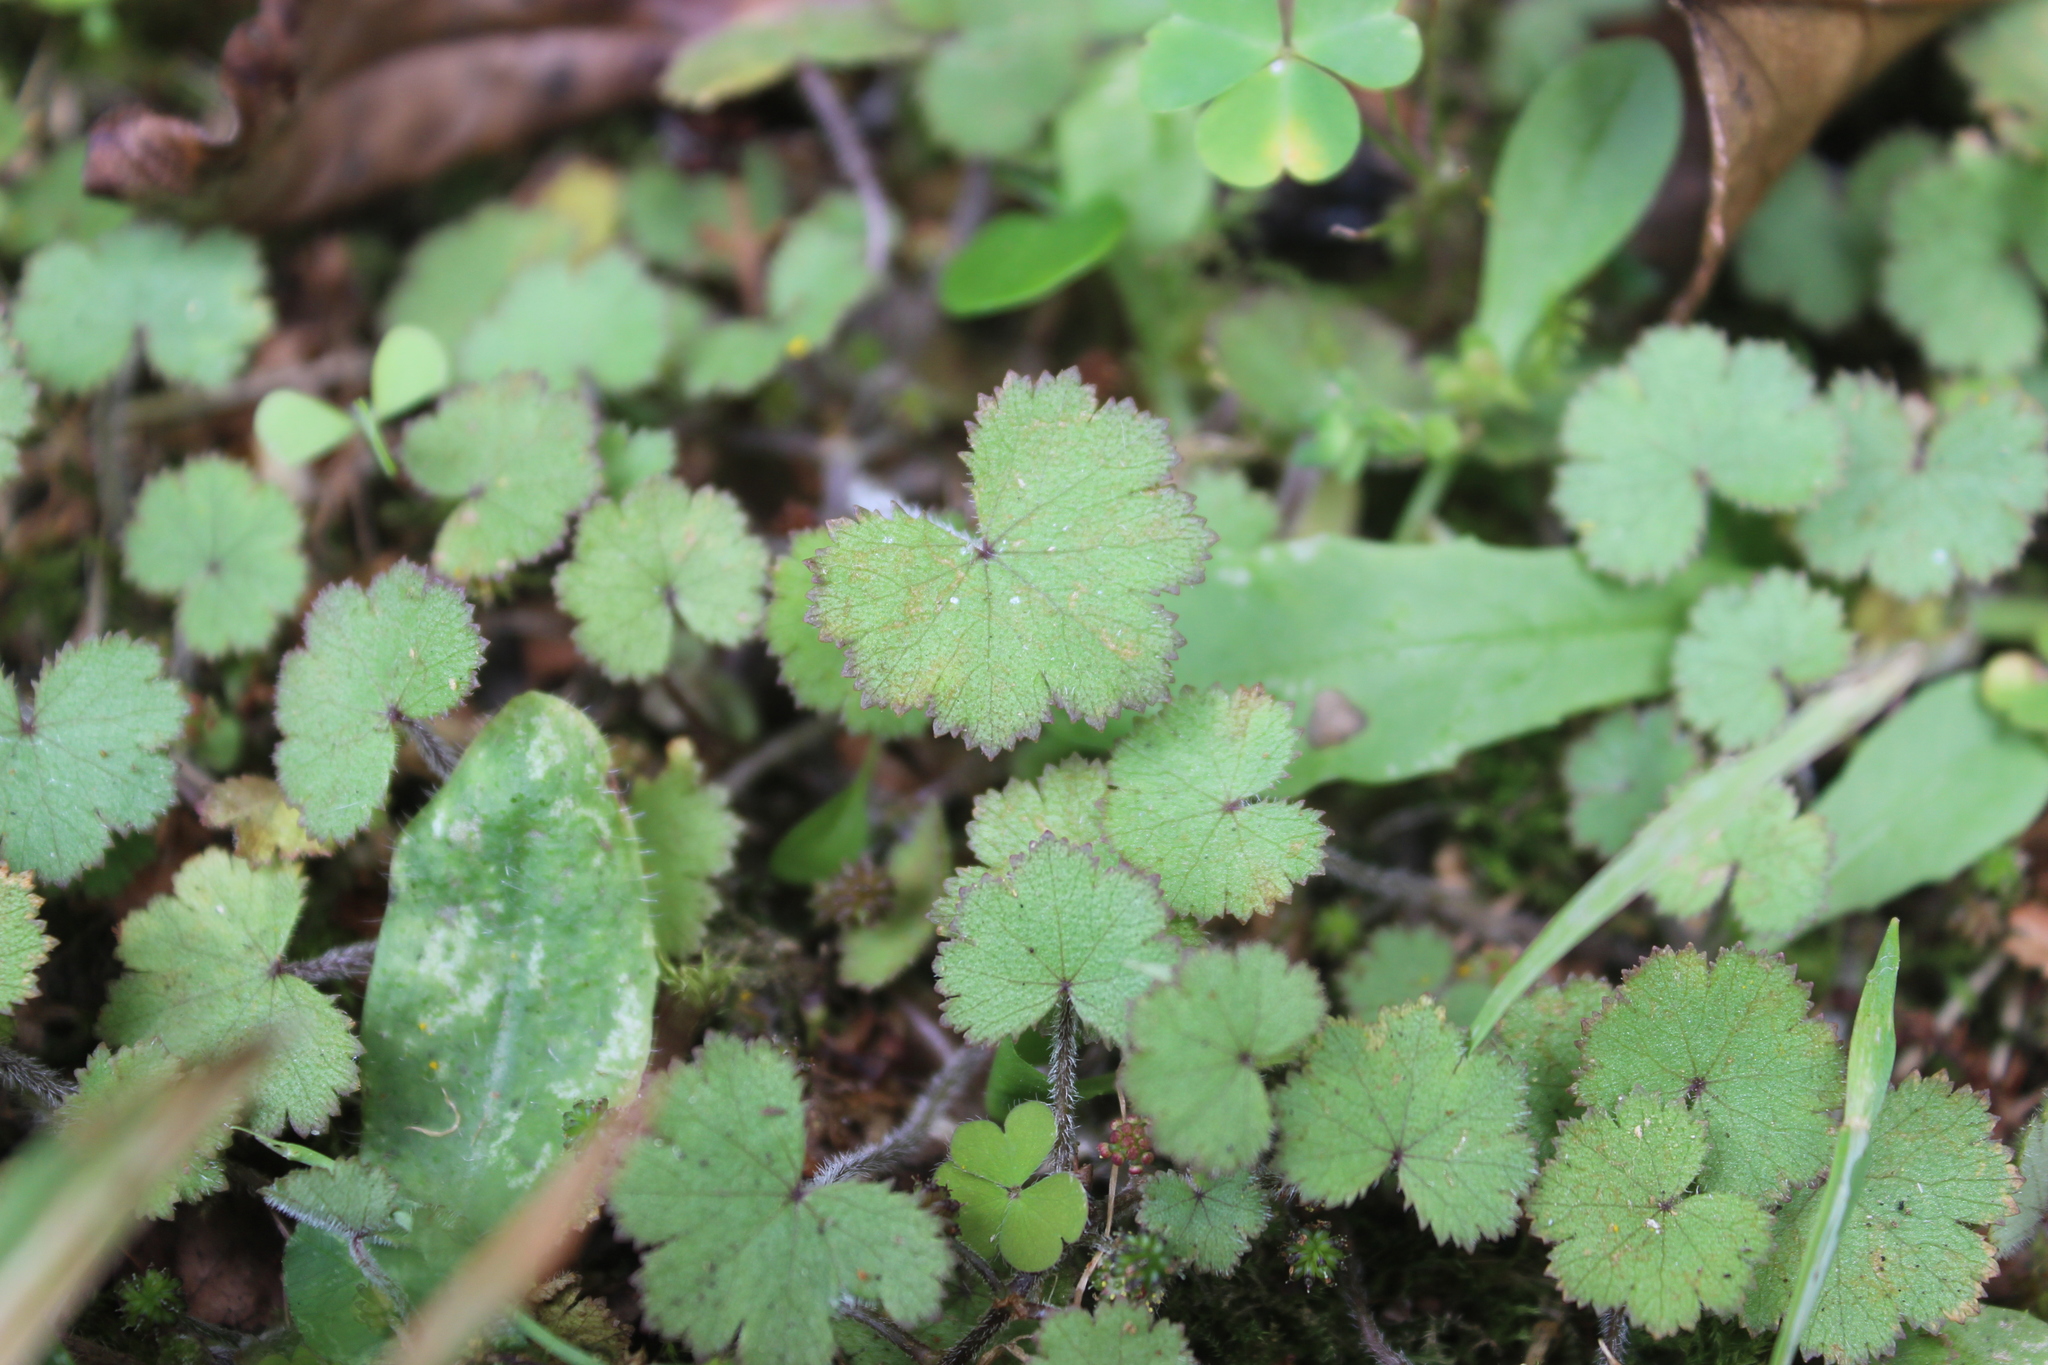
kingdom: Plantae
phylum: Tracheophyta
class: Magnoliopsida
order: Apiales
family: Araliaceae
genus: Hydrocotyle
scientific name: Hydrocotyle moschata
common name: Hairy pennywort
